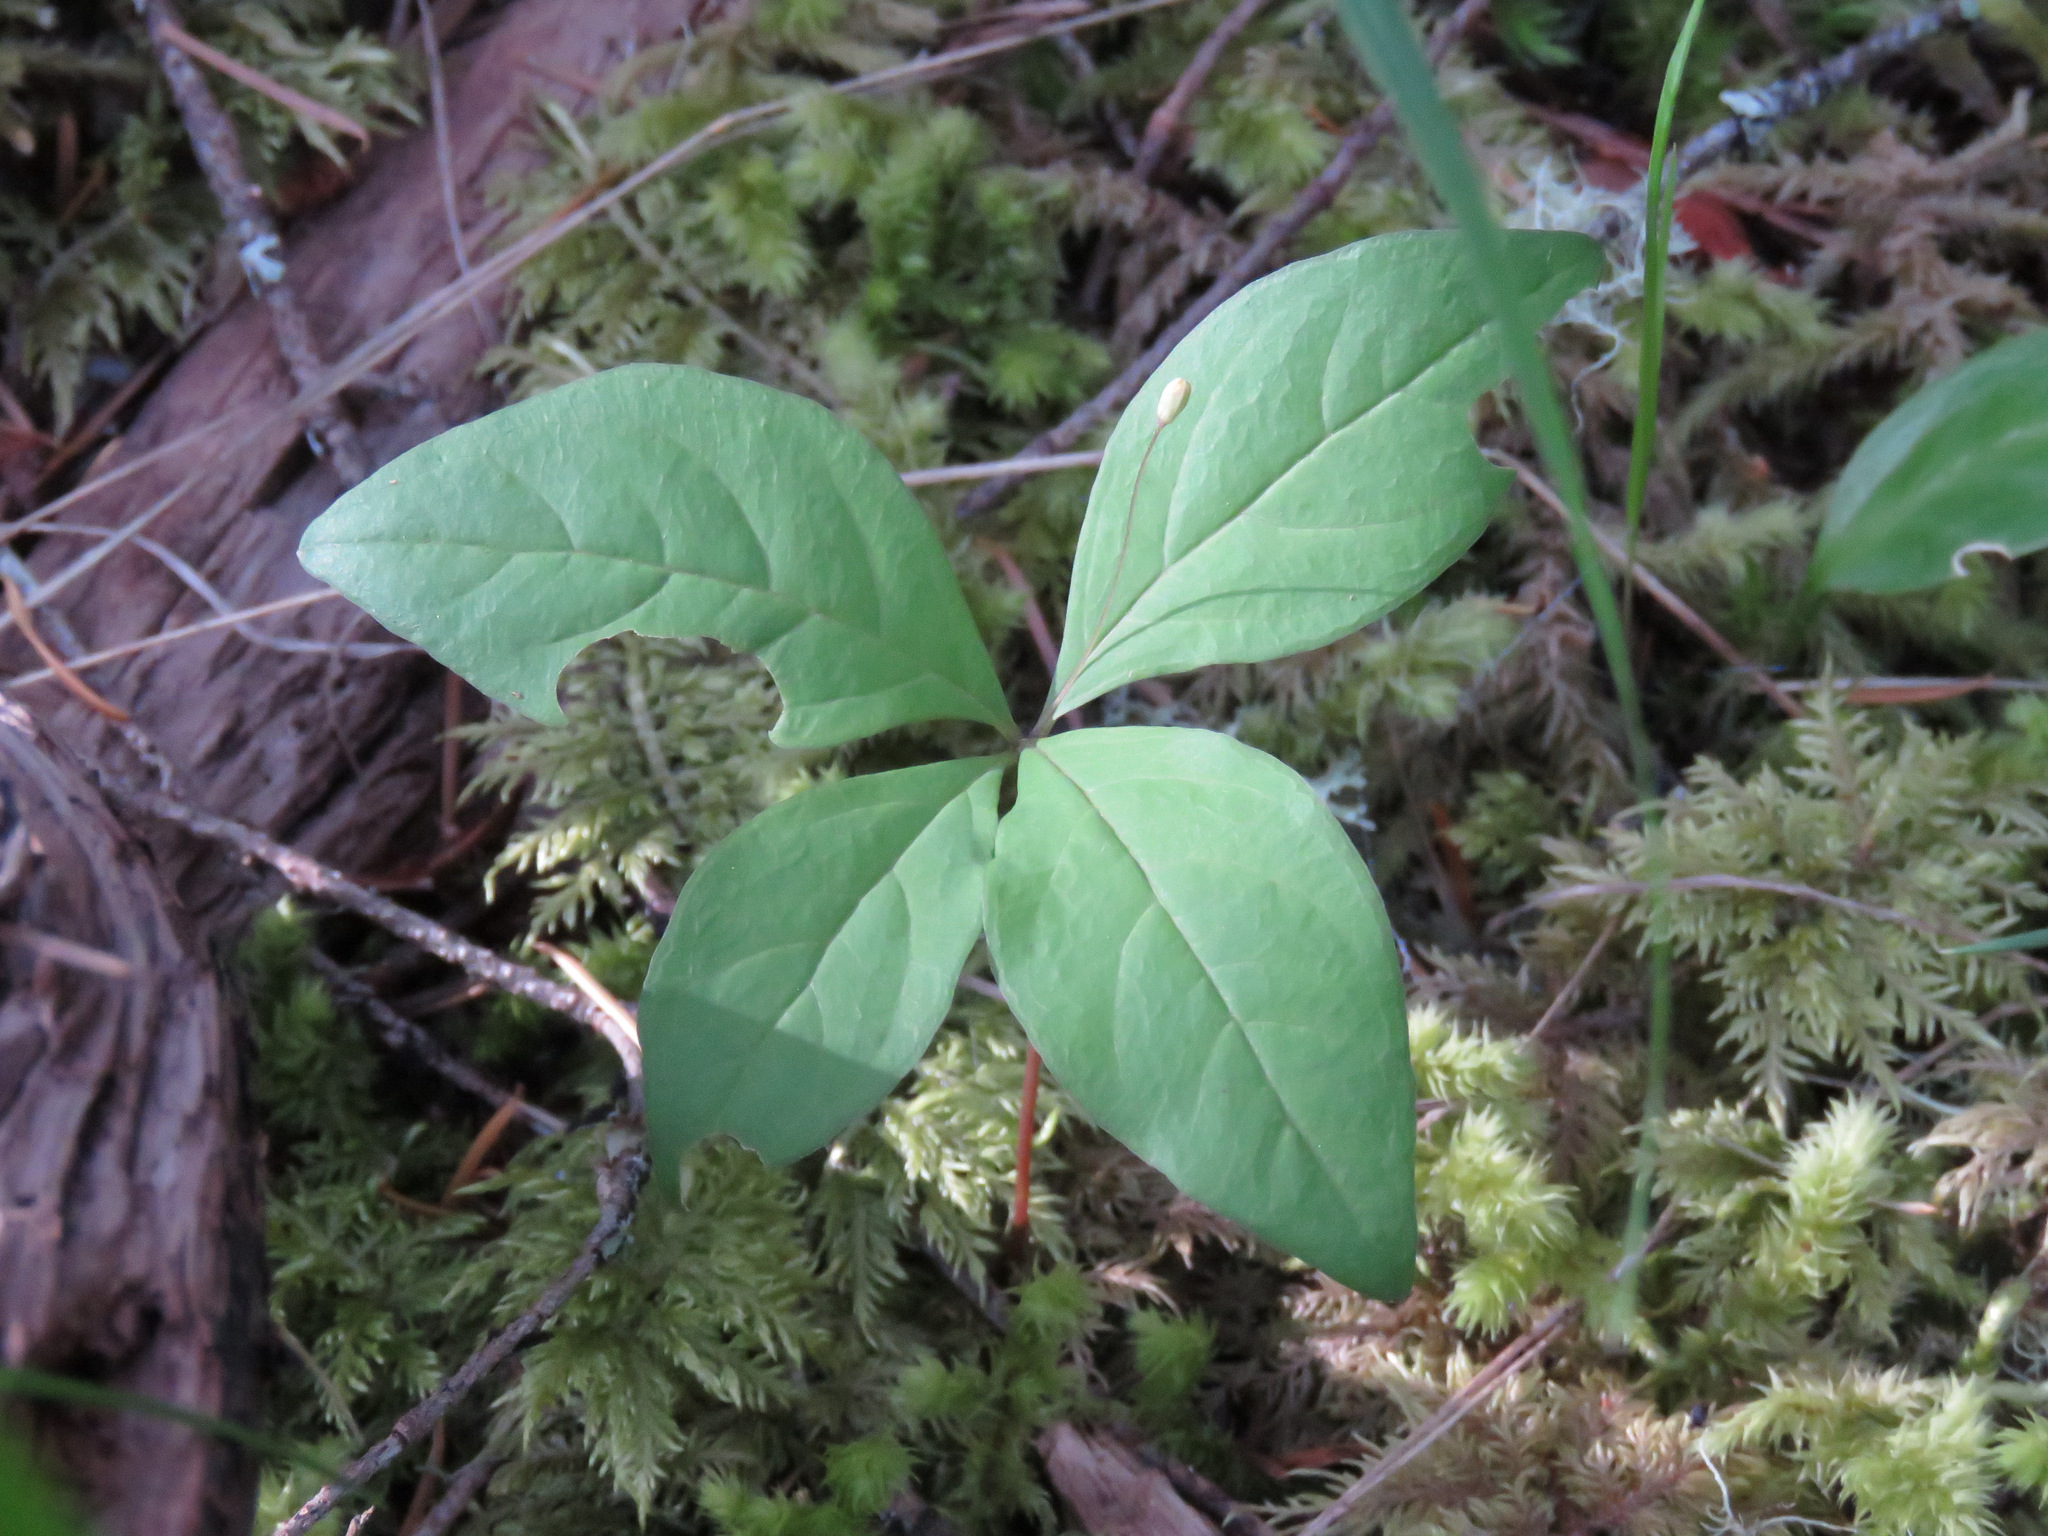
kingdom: Plantae
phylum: Tracheophyta
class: Magnoliopsida
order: Ericales
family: Primulaceae
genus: Lysimachia
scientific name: Lysimachia latifolia
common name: Pacific starflower
